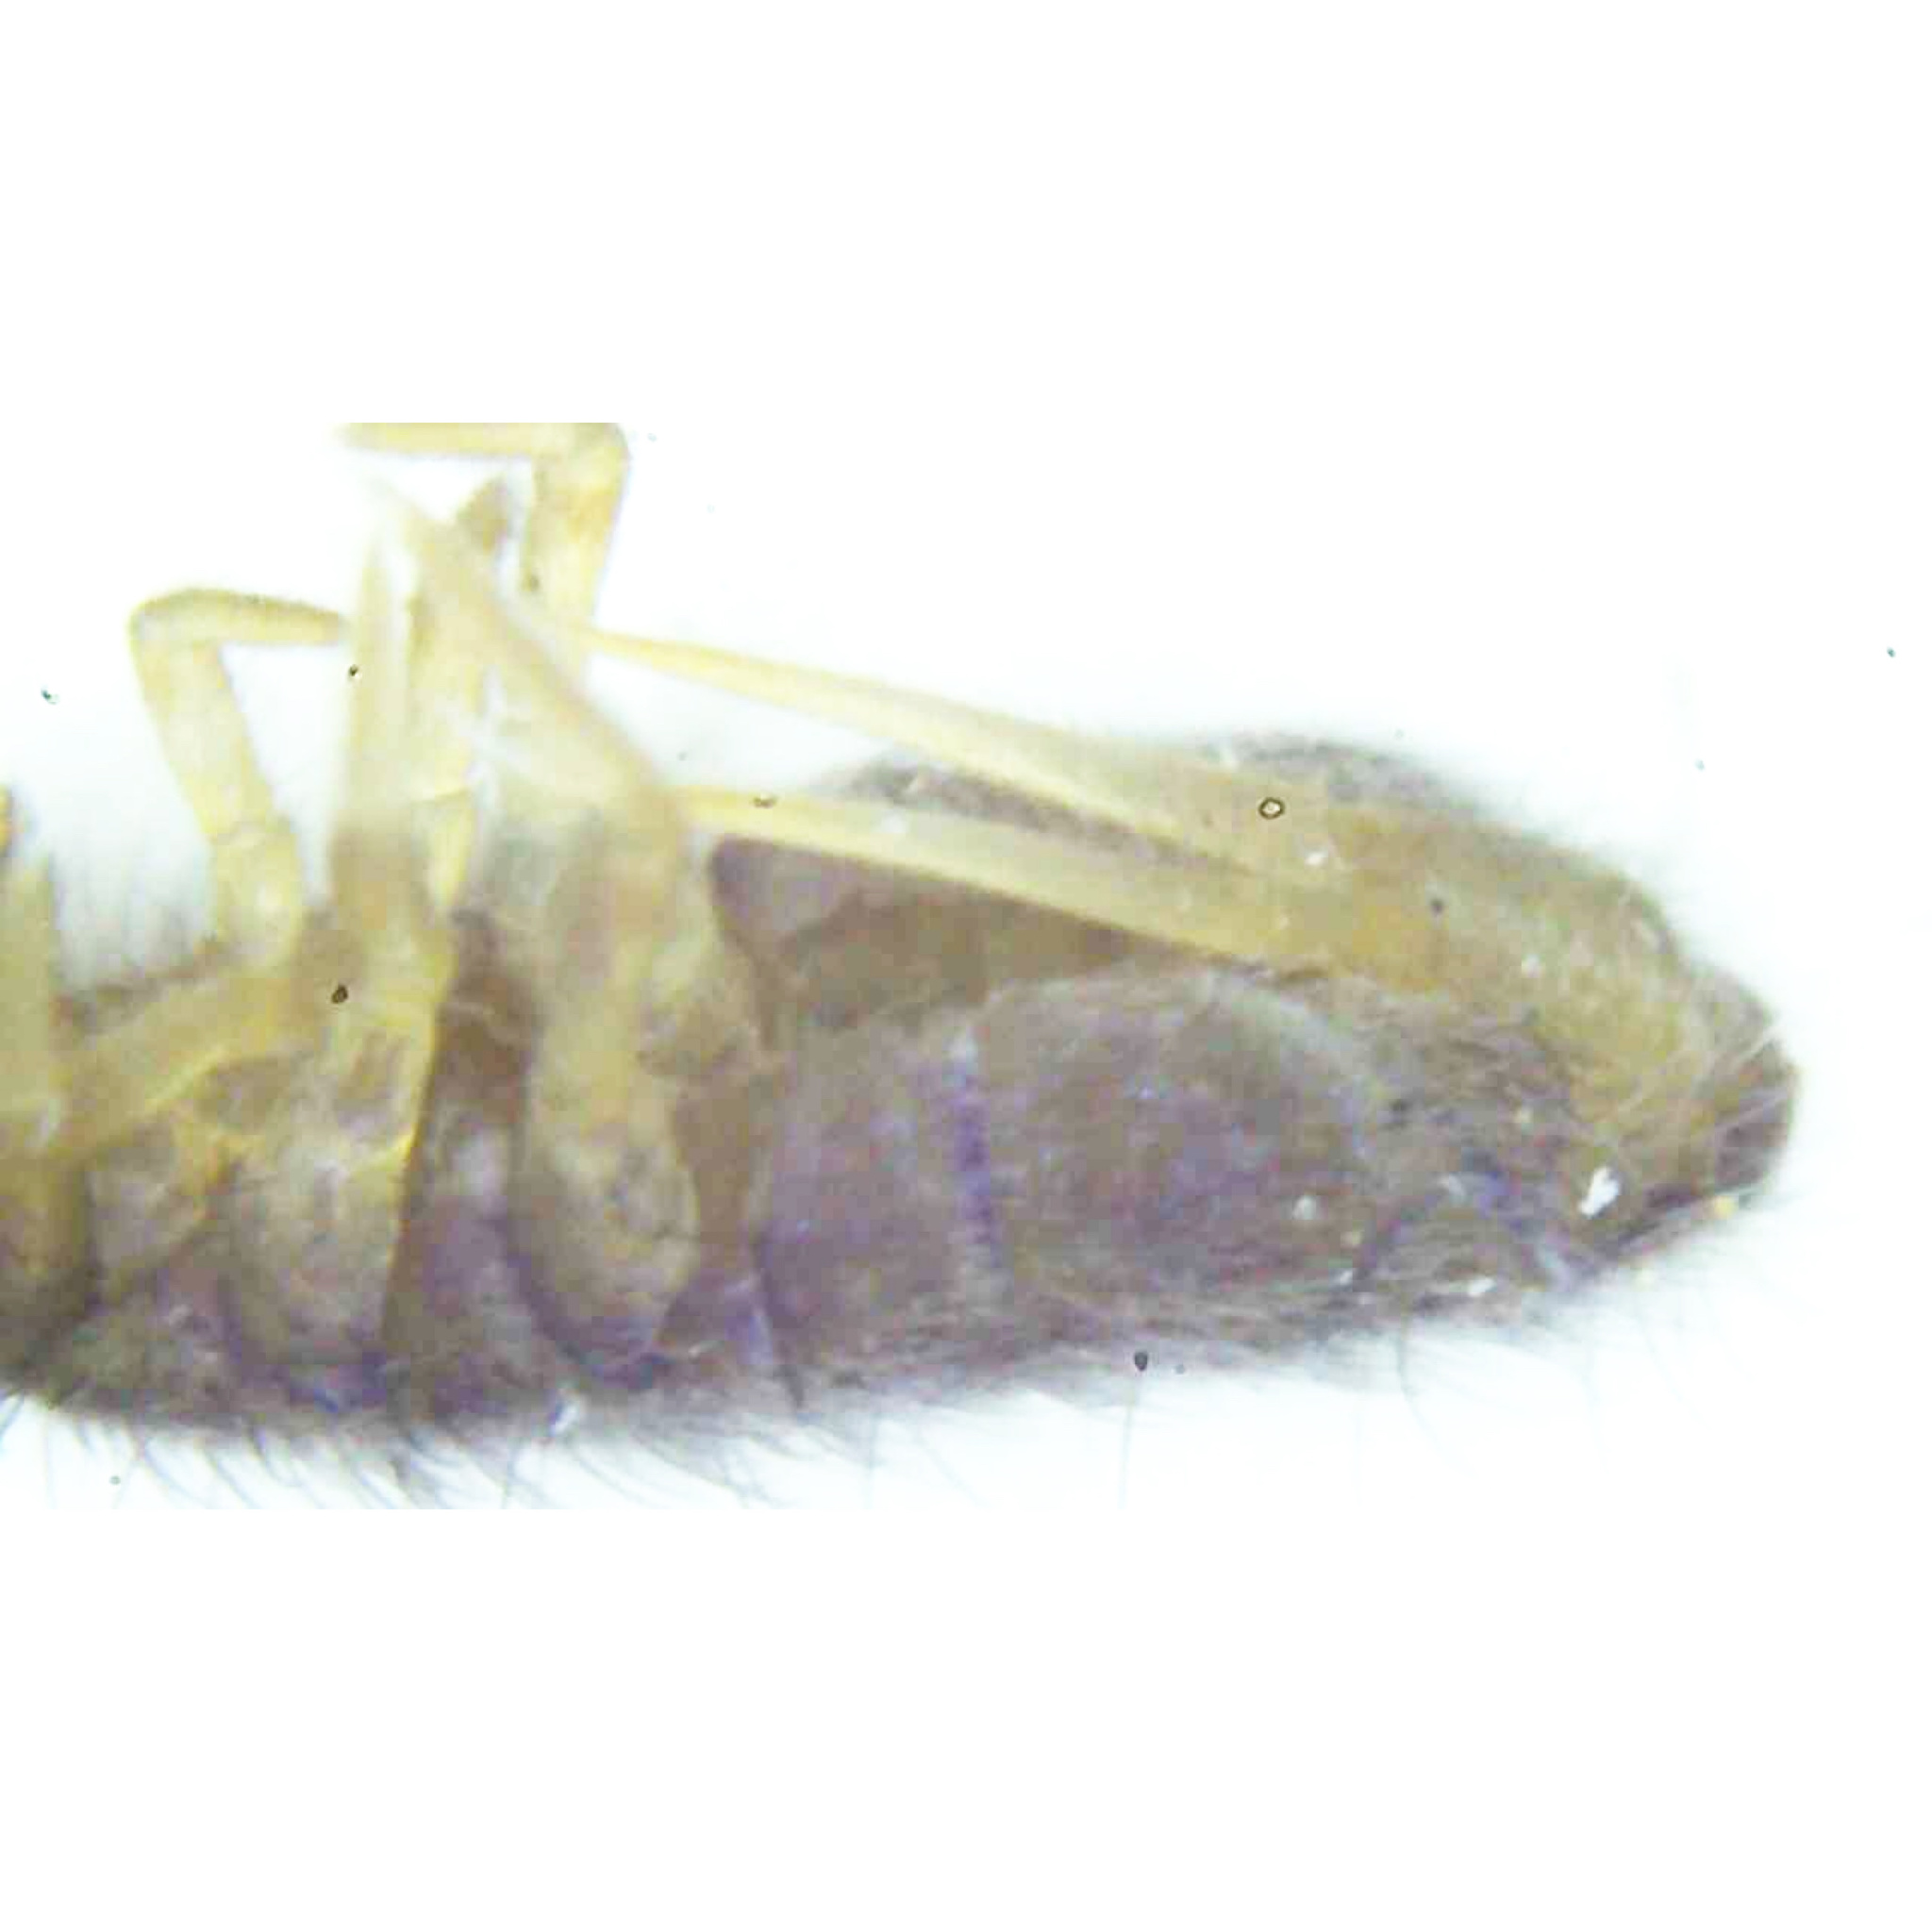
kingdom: Animalia
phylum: Arthropoda
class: Collembola
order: Entomobryomorpha
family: Isotomidae
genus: Isotoma
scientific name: Isotoma delta
